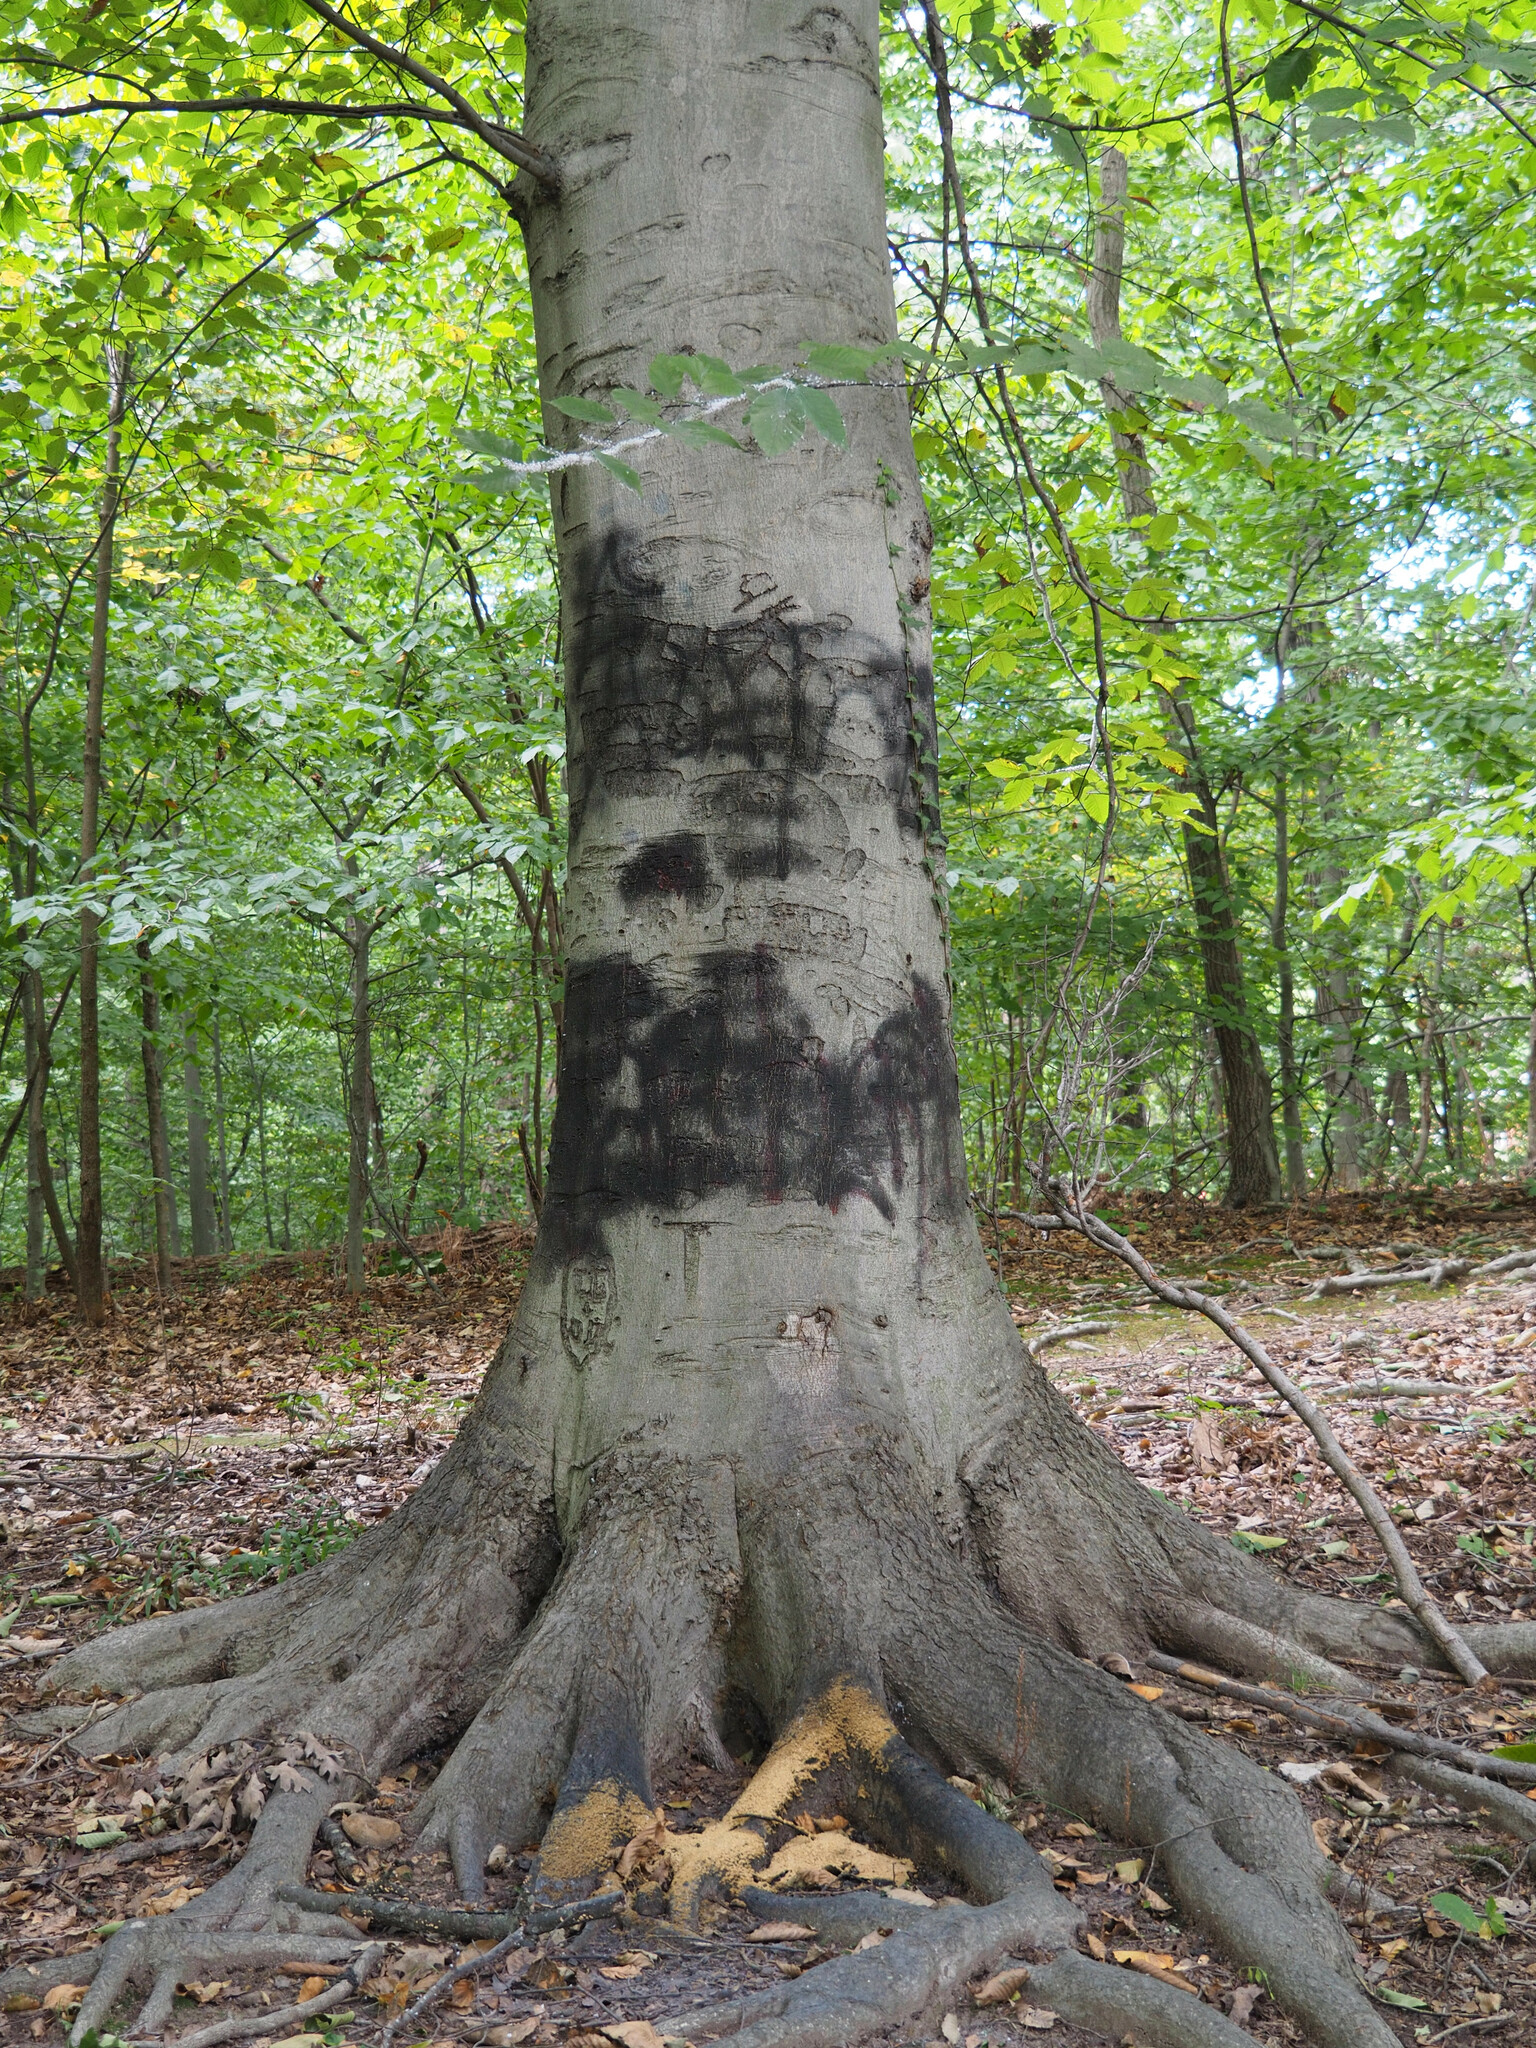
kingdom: Fungi
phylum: Ascomycota
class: Dothideomycetes
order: Capnodiales
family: Capnodiaceae
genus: Scorias
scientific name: Scorias spongiosa
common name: Black sooty mold
